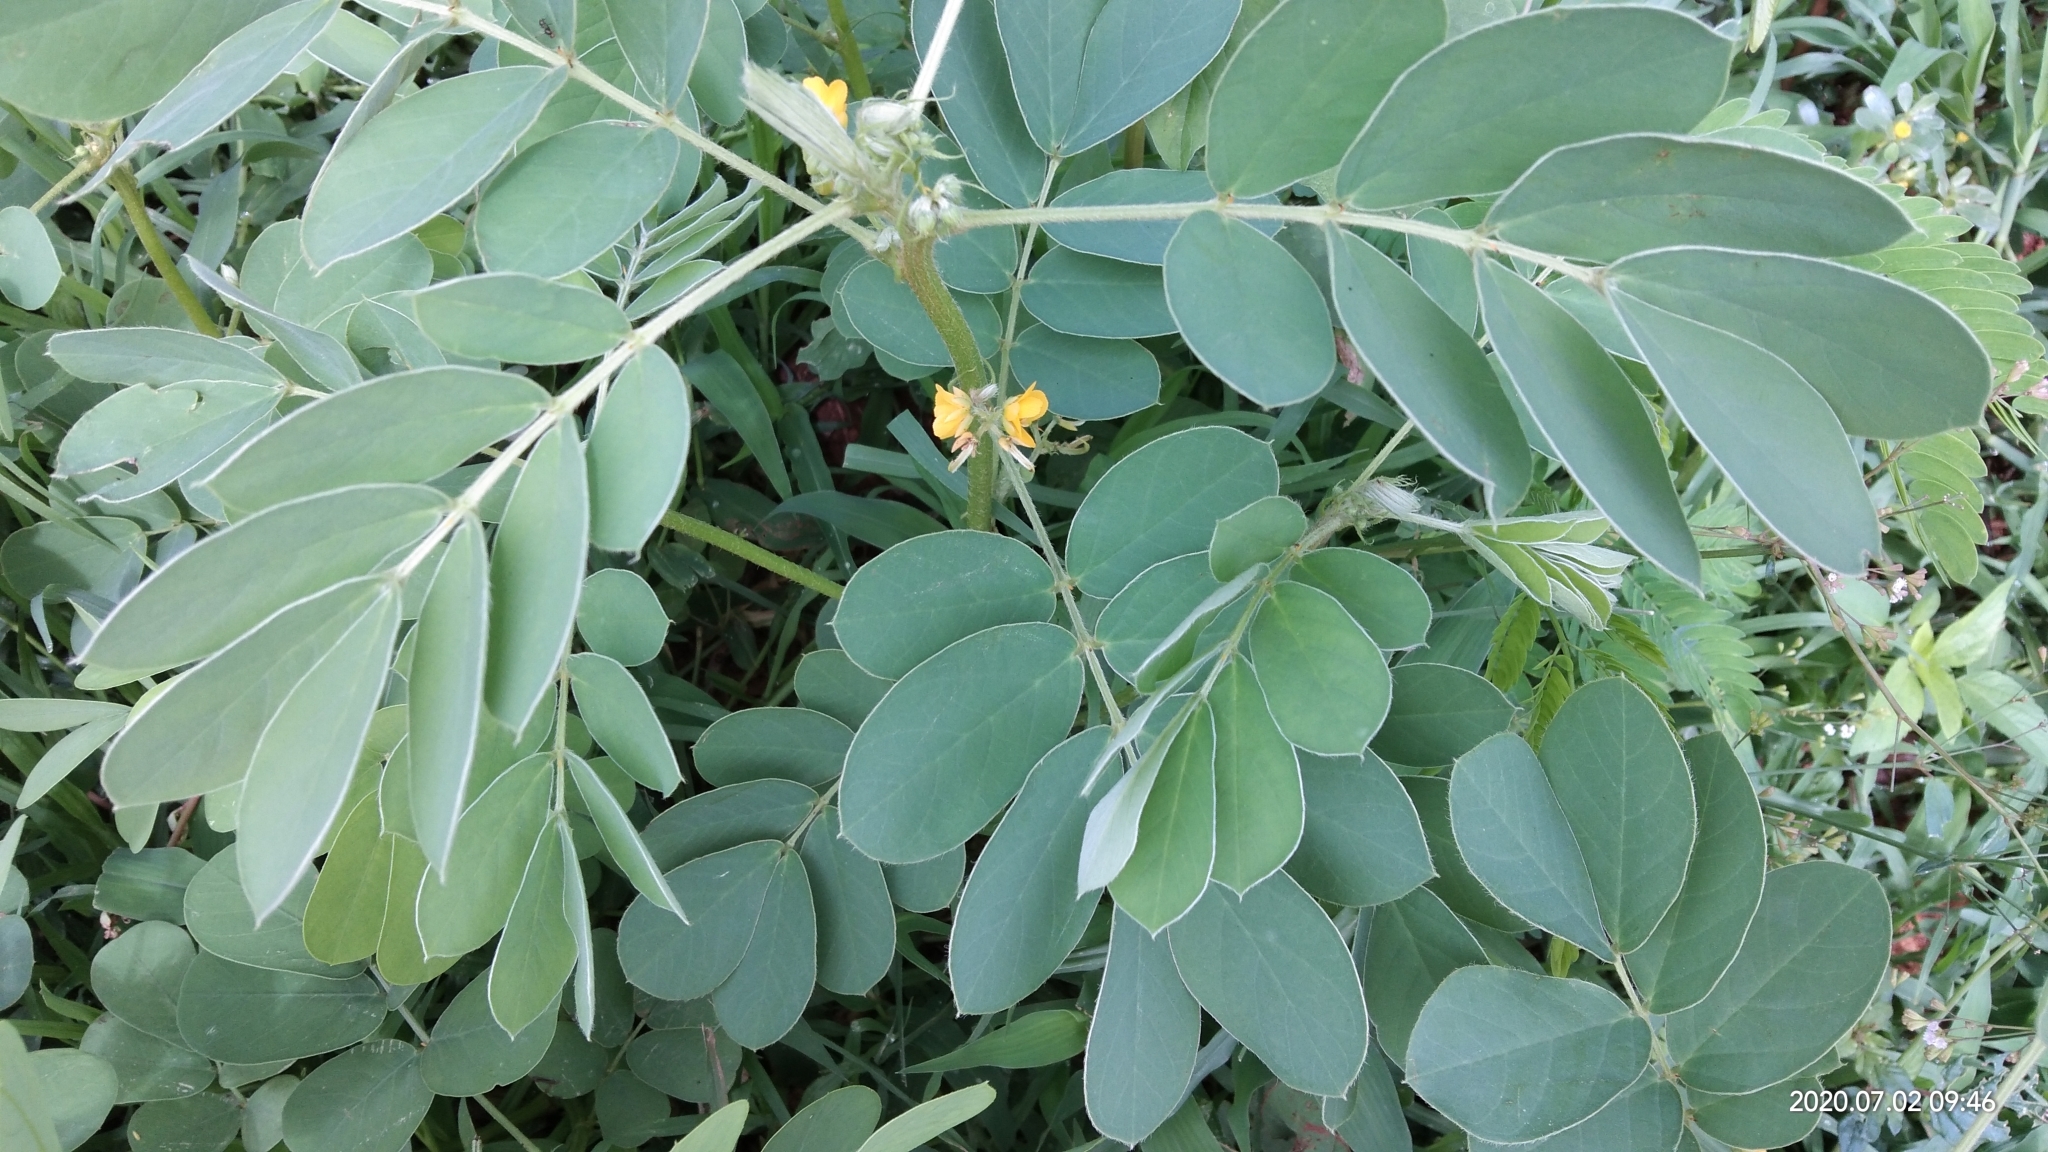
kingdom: Plantae
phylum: Tracheophyta
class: Magnoliopsida
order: Fabales
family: Fabaceae
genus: Senna
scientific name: Senna uniflora
